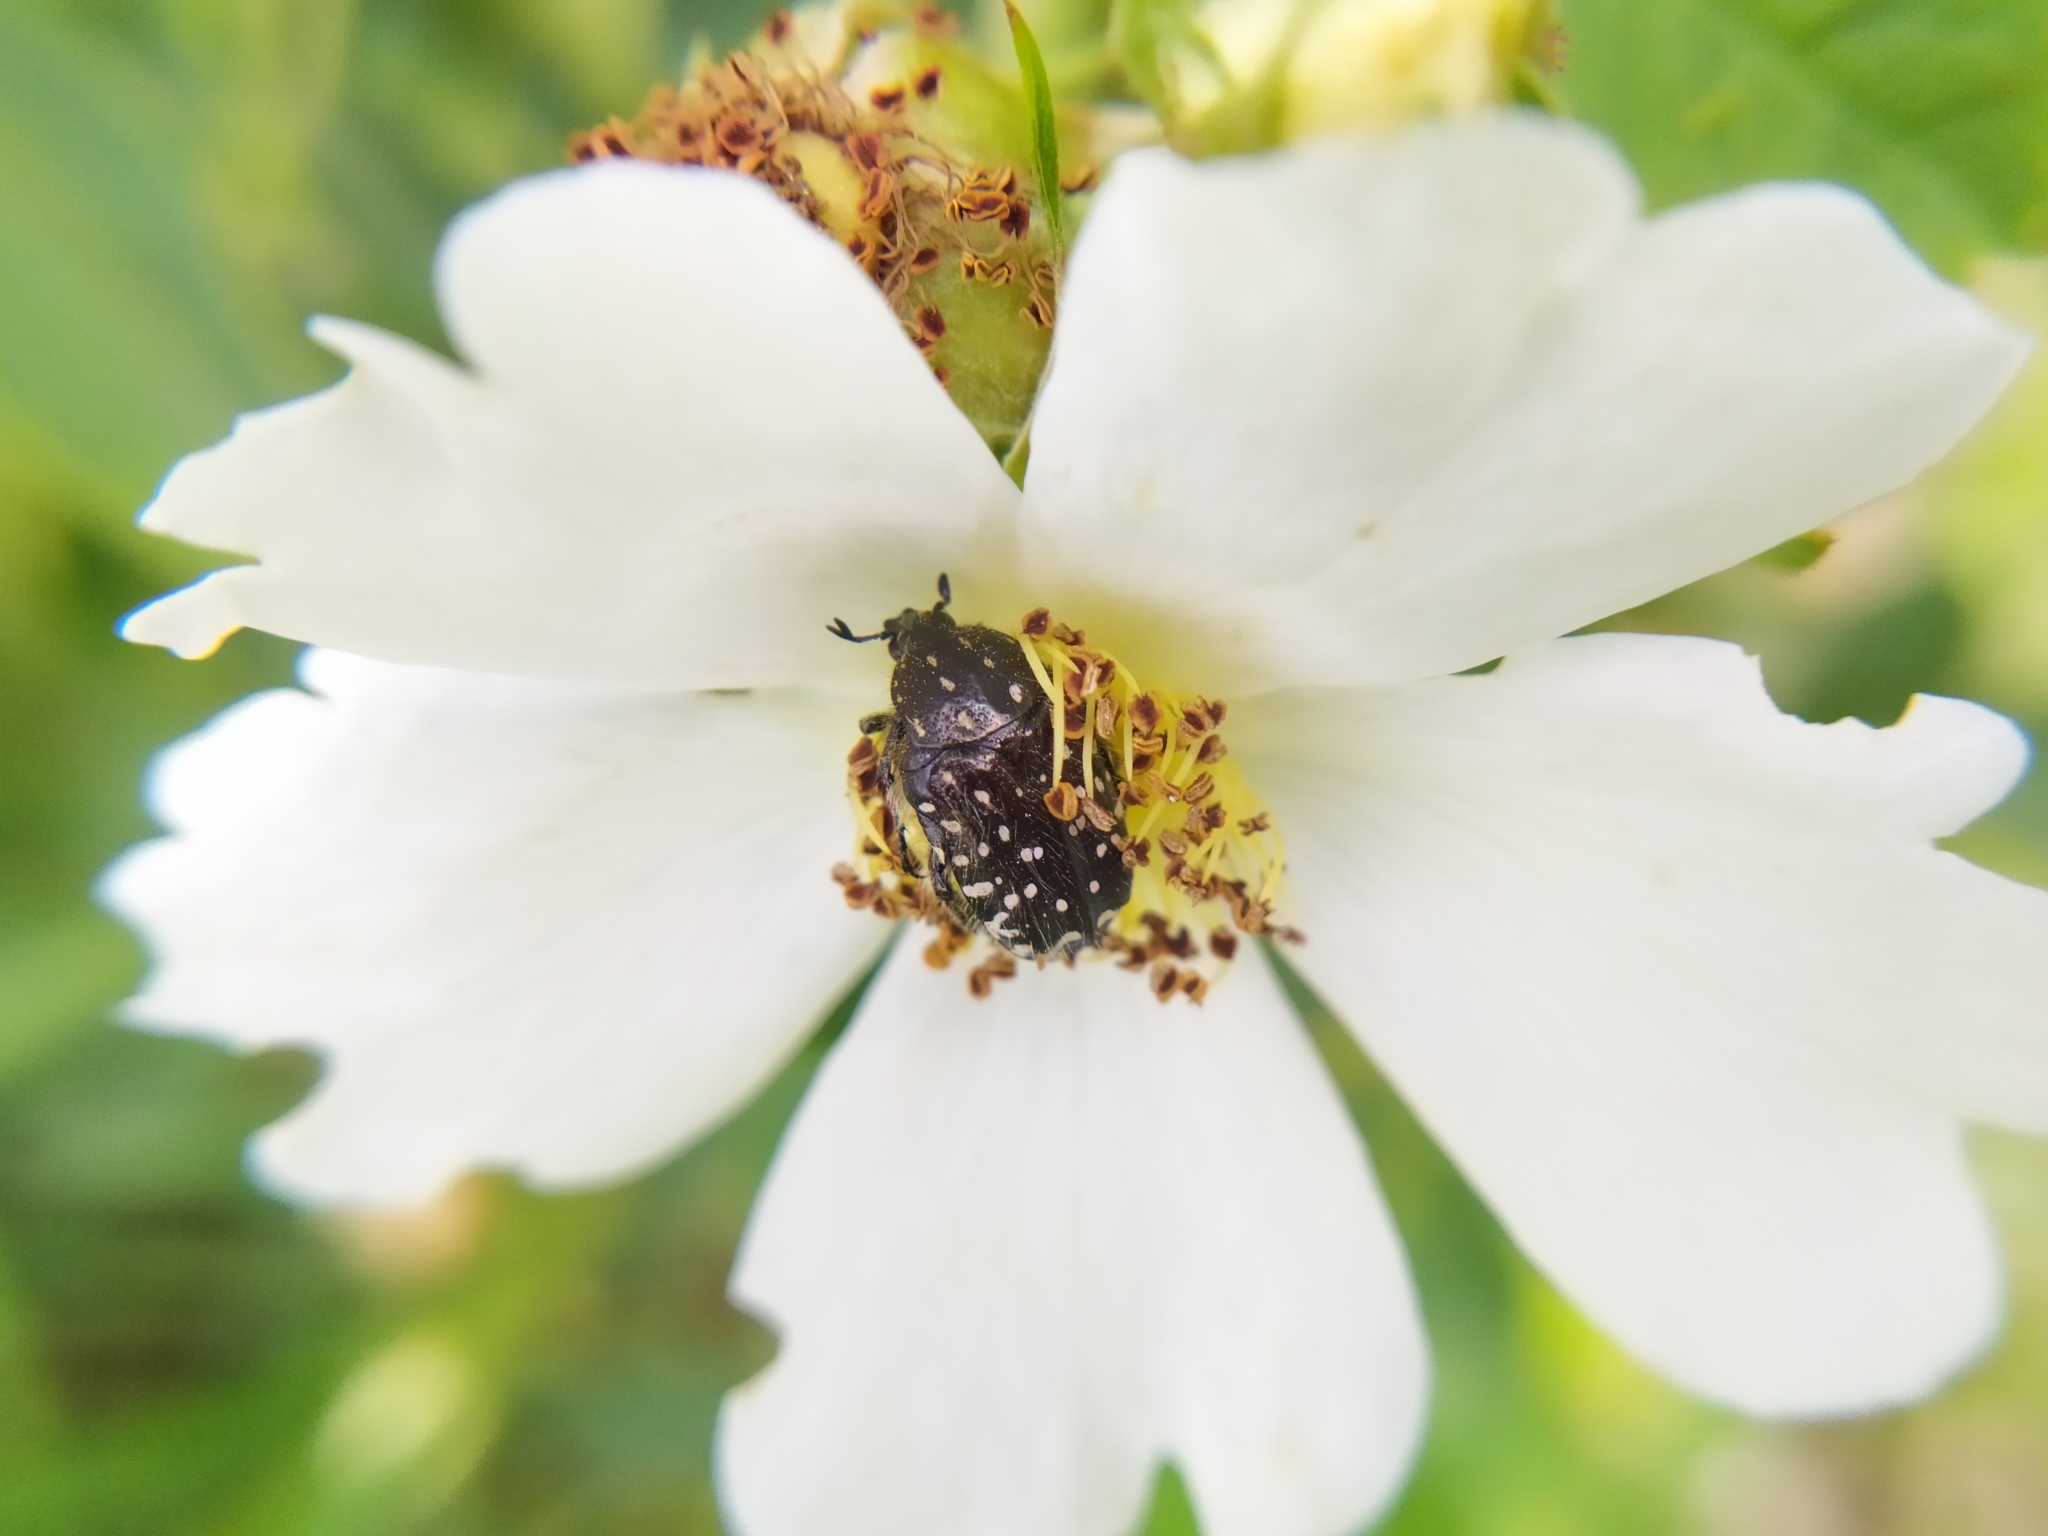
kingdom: Animalia
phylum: Arthropoda
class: Insecta
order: Coleoptera
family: Scarabaeidae
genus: Oxythyrea
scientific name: Oxythyrea funesta
